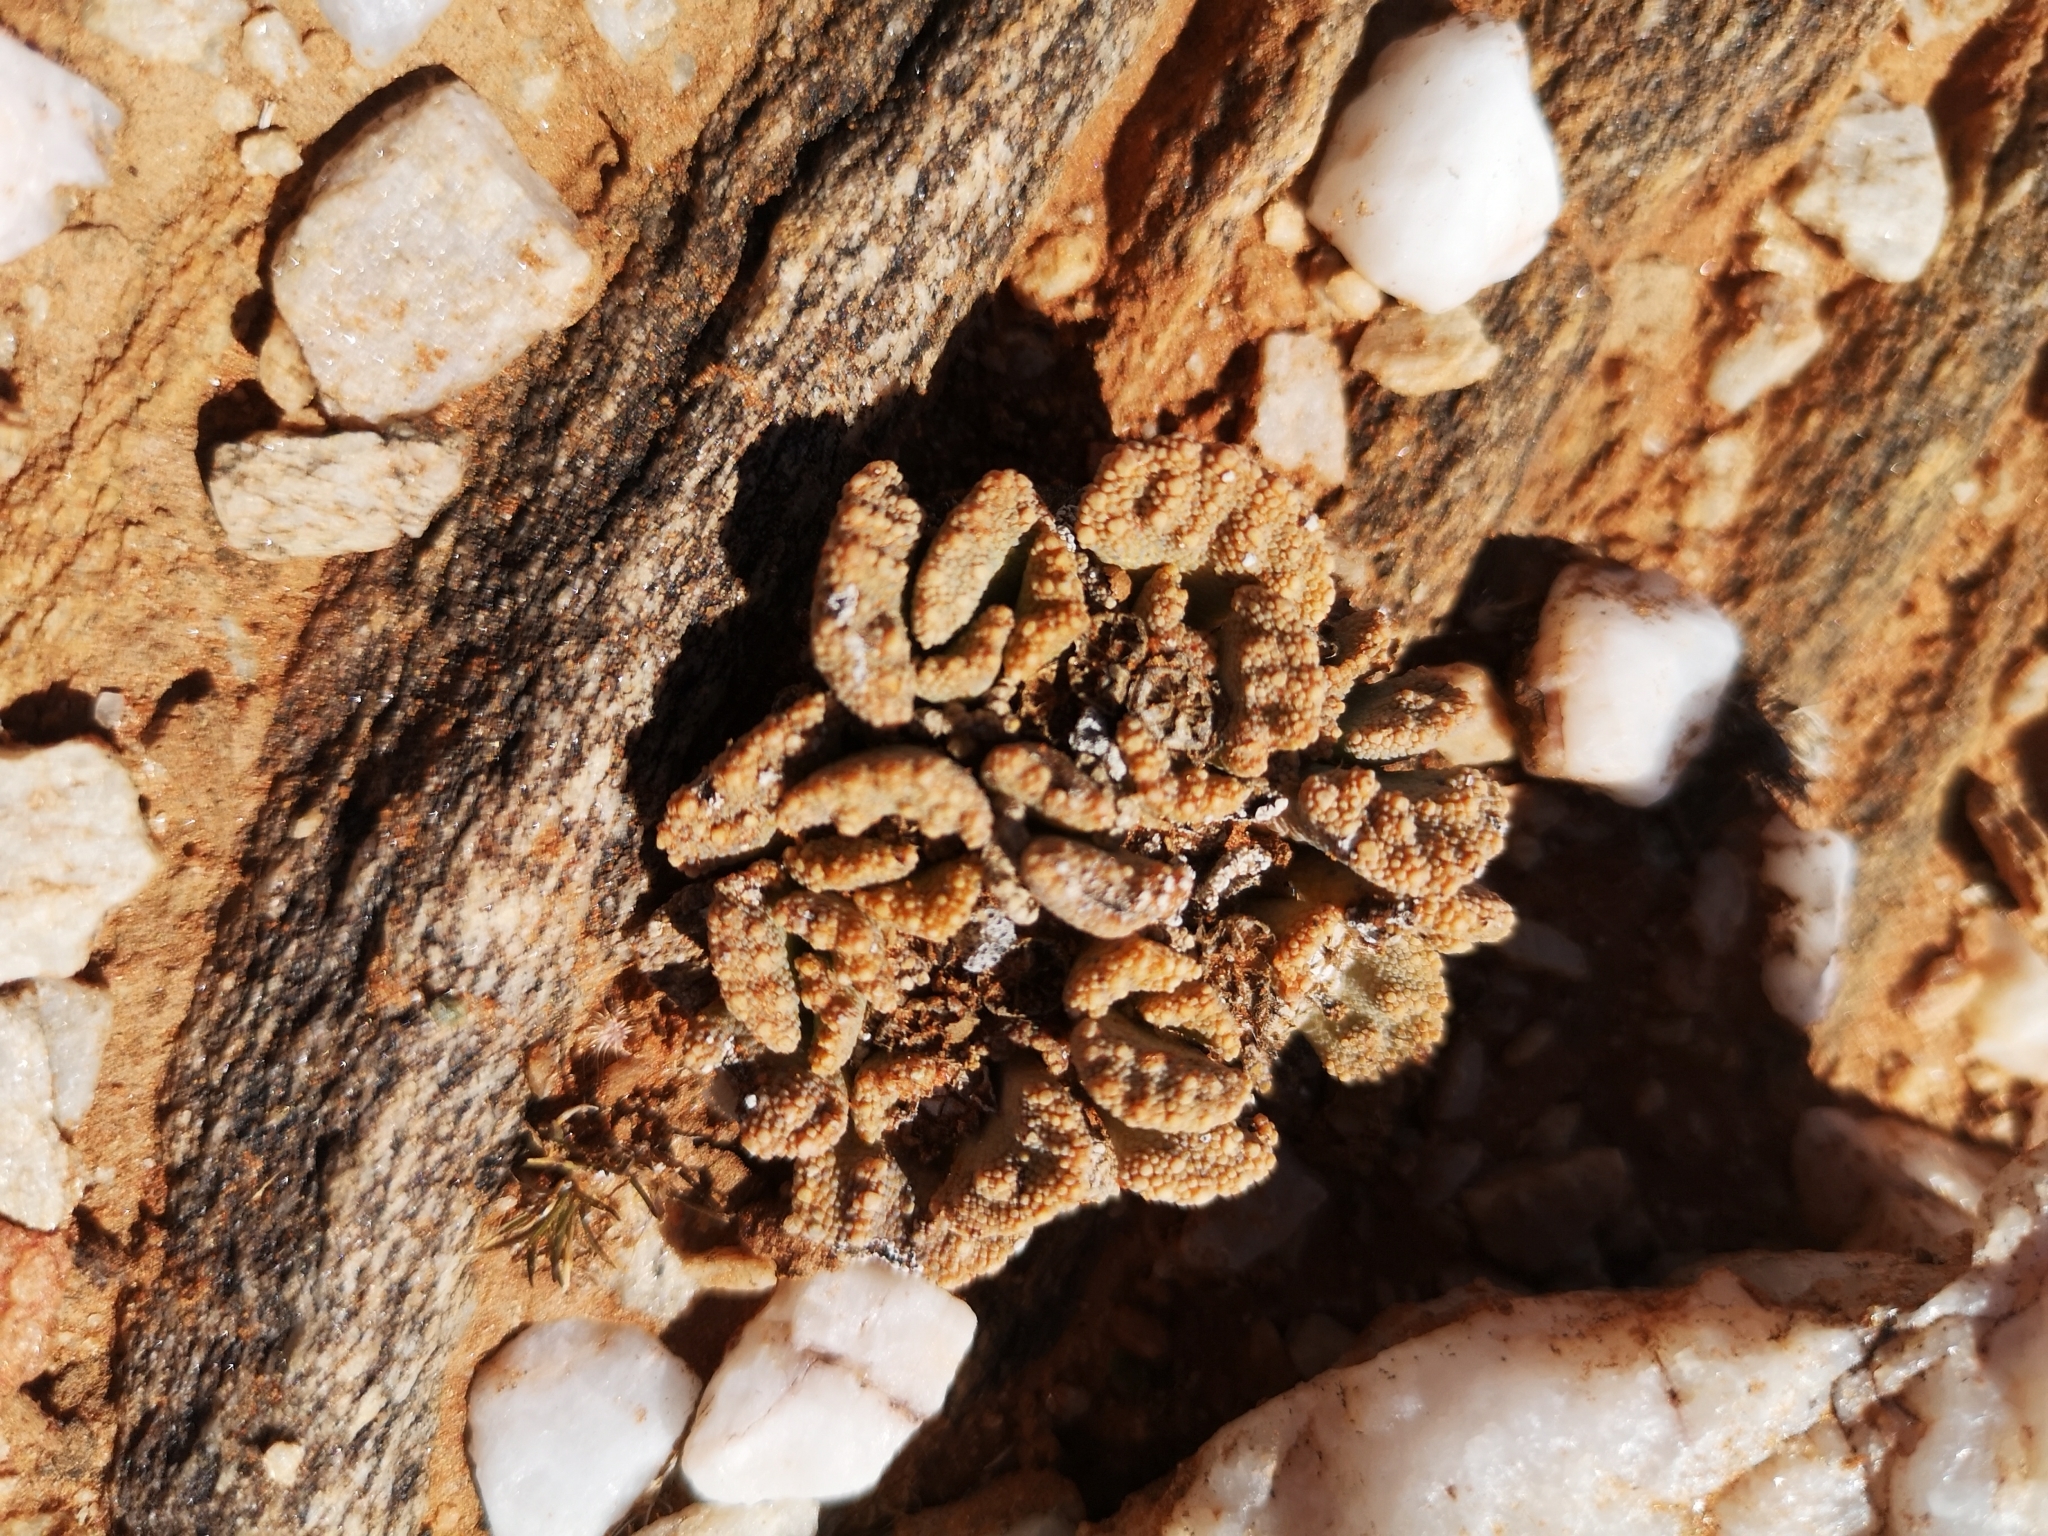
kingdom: Plantae
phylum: Tracheophyta
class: Magnoliopsida
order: Caryophyllales
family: Aizoaceae
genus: Titanopsis
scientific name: Titanopsis calcarea
